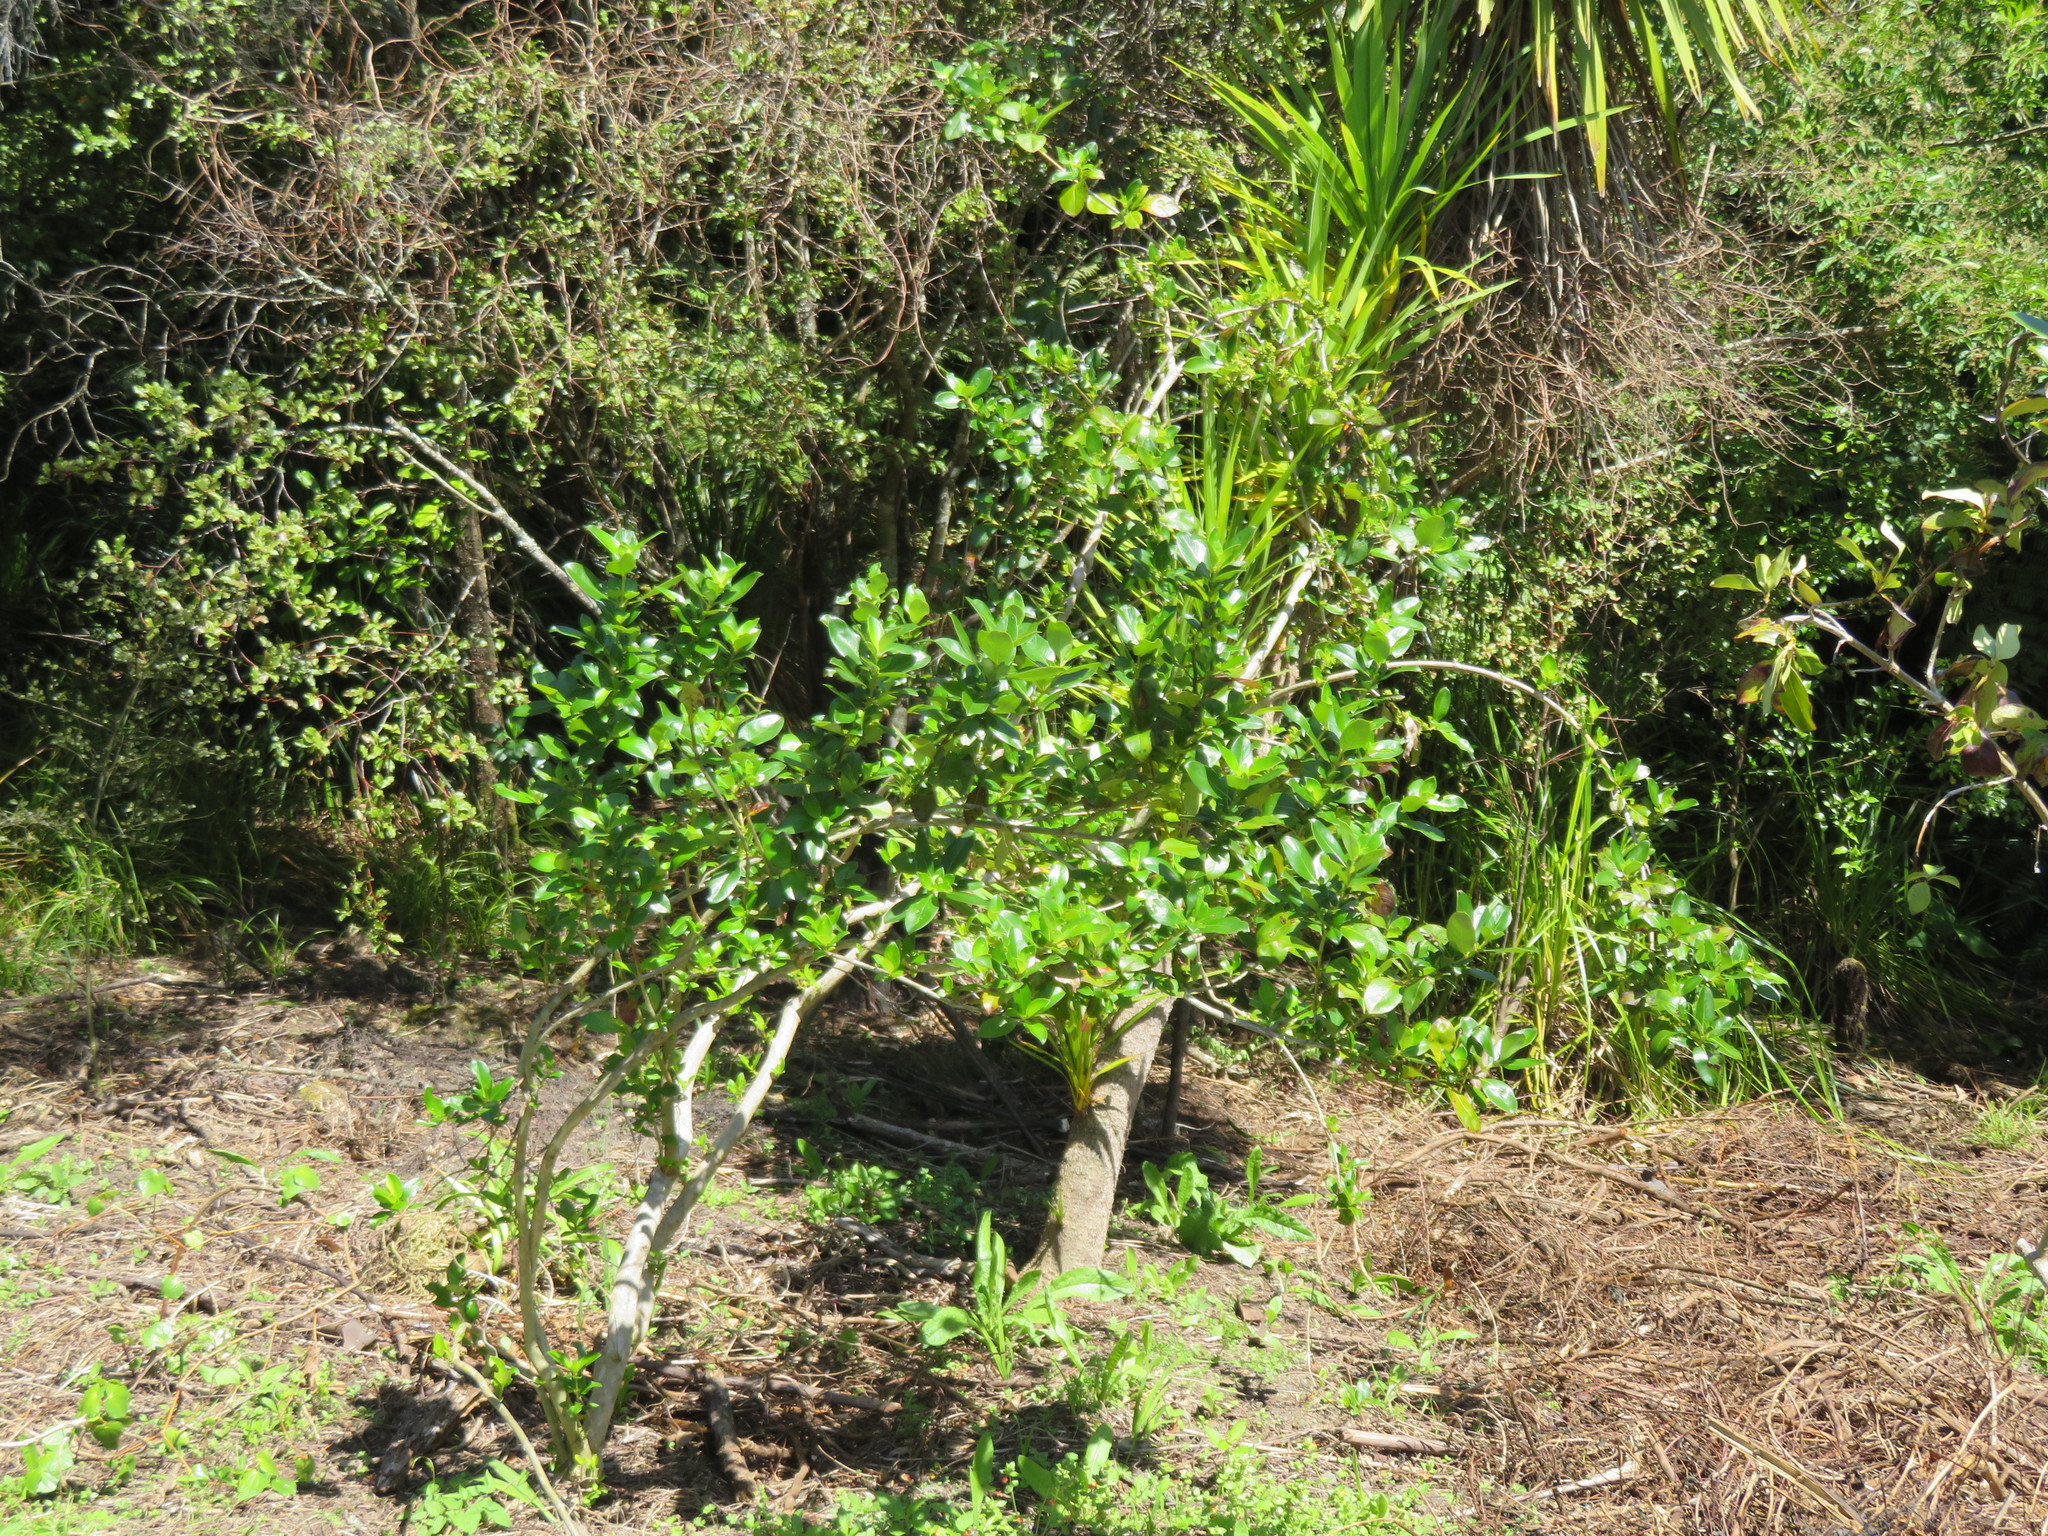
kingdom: Plantae
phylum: Tracheophyta
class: Magnoliopsida
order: Piperales
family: Piperaceae
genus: Macropiper
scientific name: Macropiper excelsum
